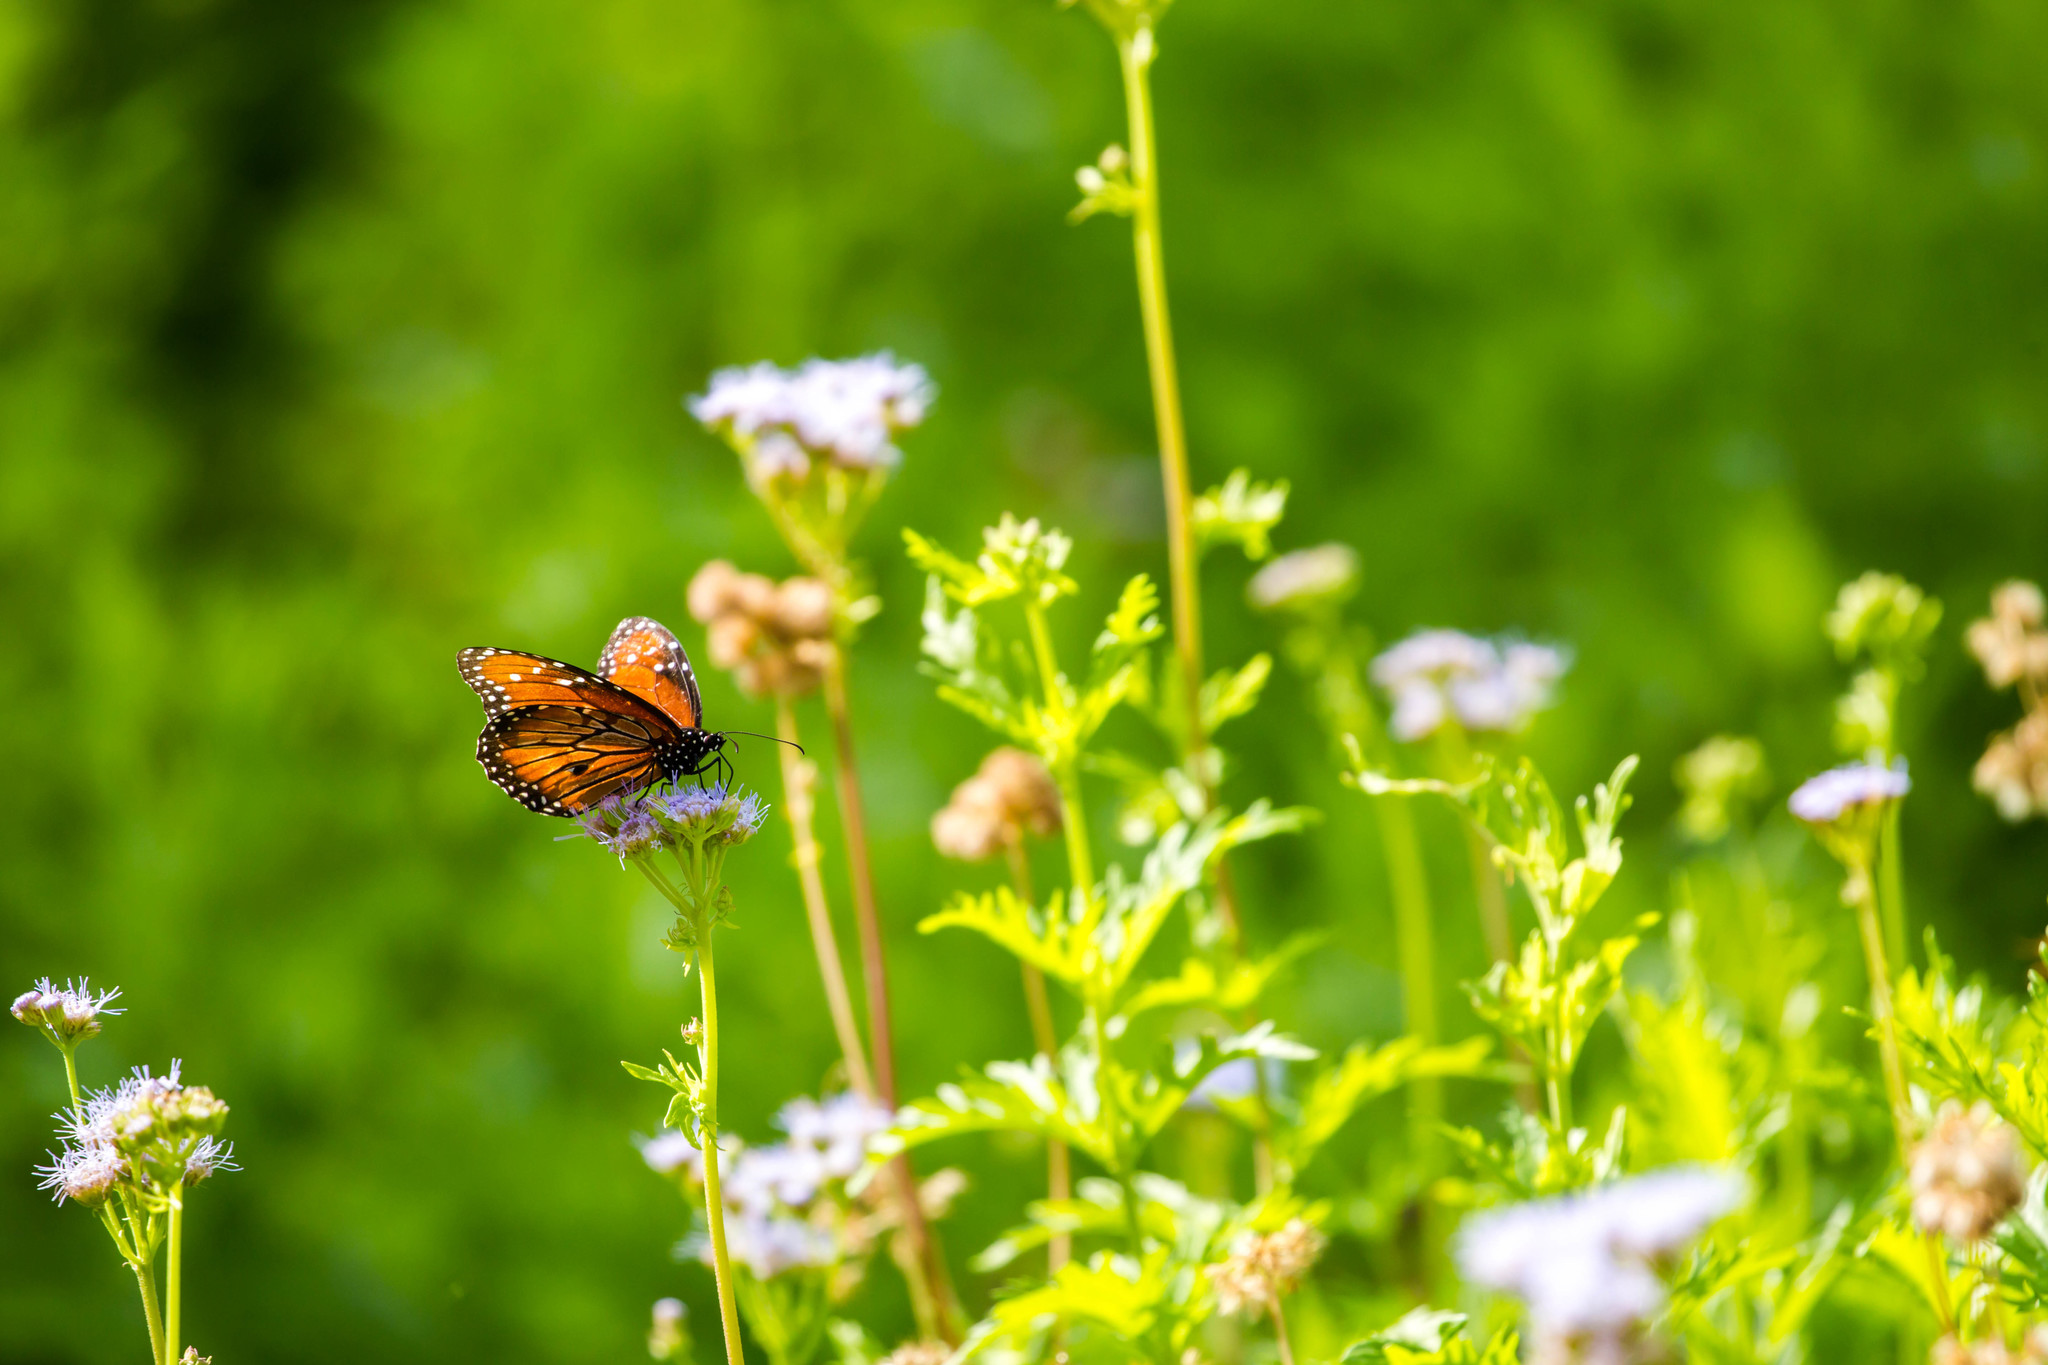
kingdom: Animalia
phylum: Arthropoda
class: Insecta
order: Lepidoptera
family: Nymphalidae
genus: Danaus
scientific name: Danaus eresimus
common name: Soldier
